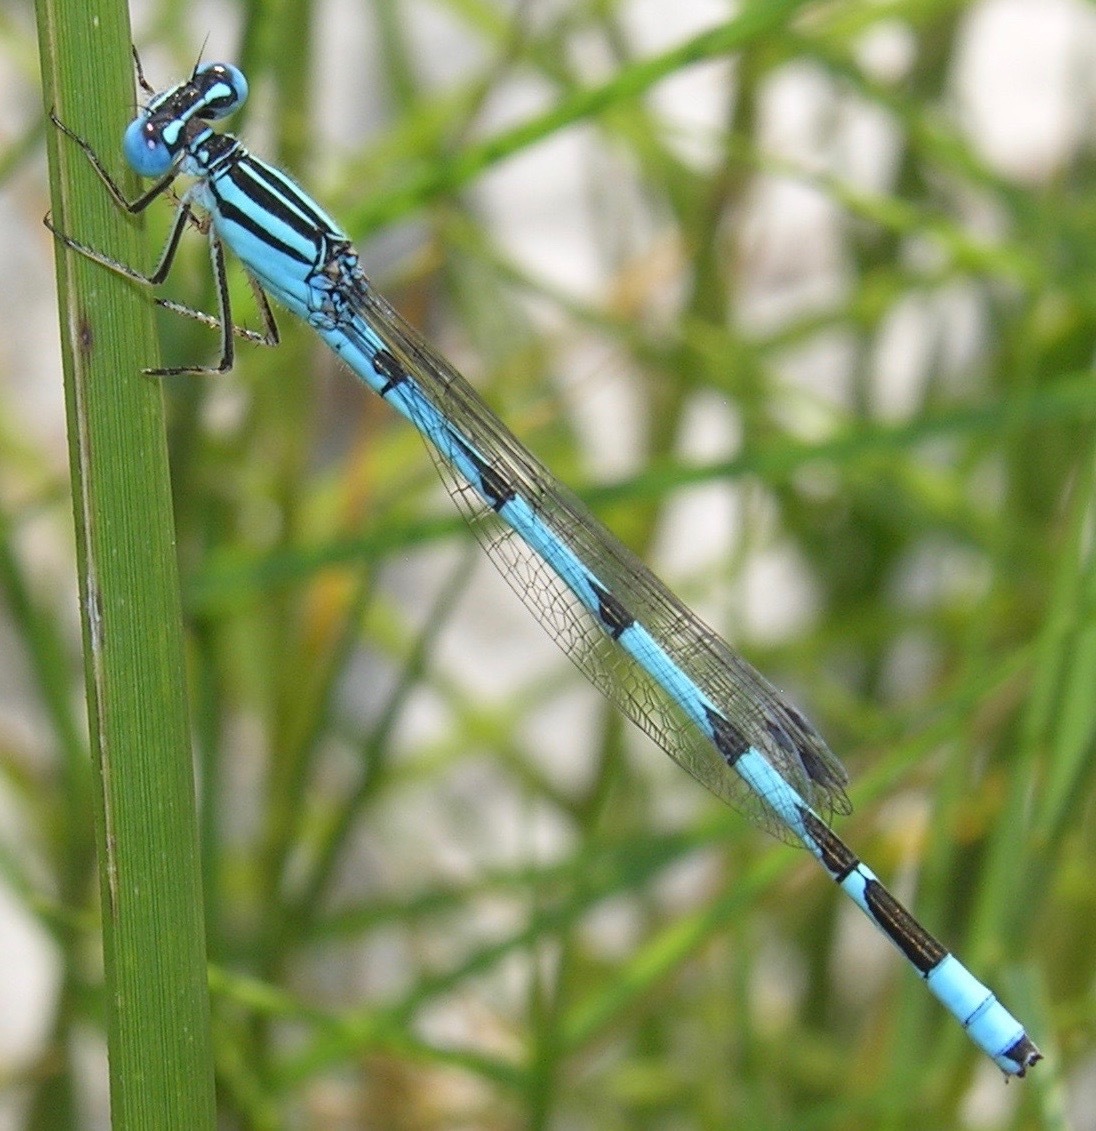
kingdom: Animalia
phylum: Arthropoda
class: Insecta
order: Odonata
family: Coenagrionidae
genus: Enallagma
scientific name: Enallagma durum
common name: Big bluet
